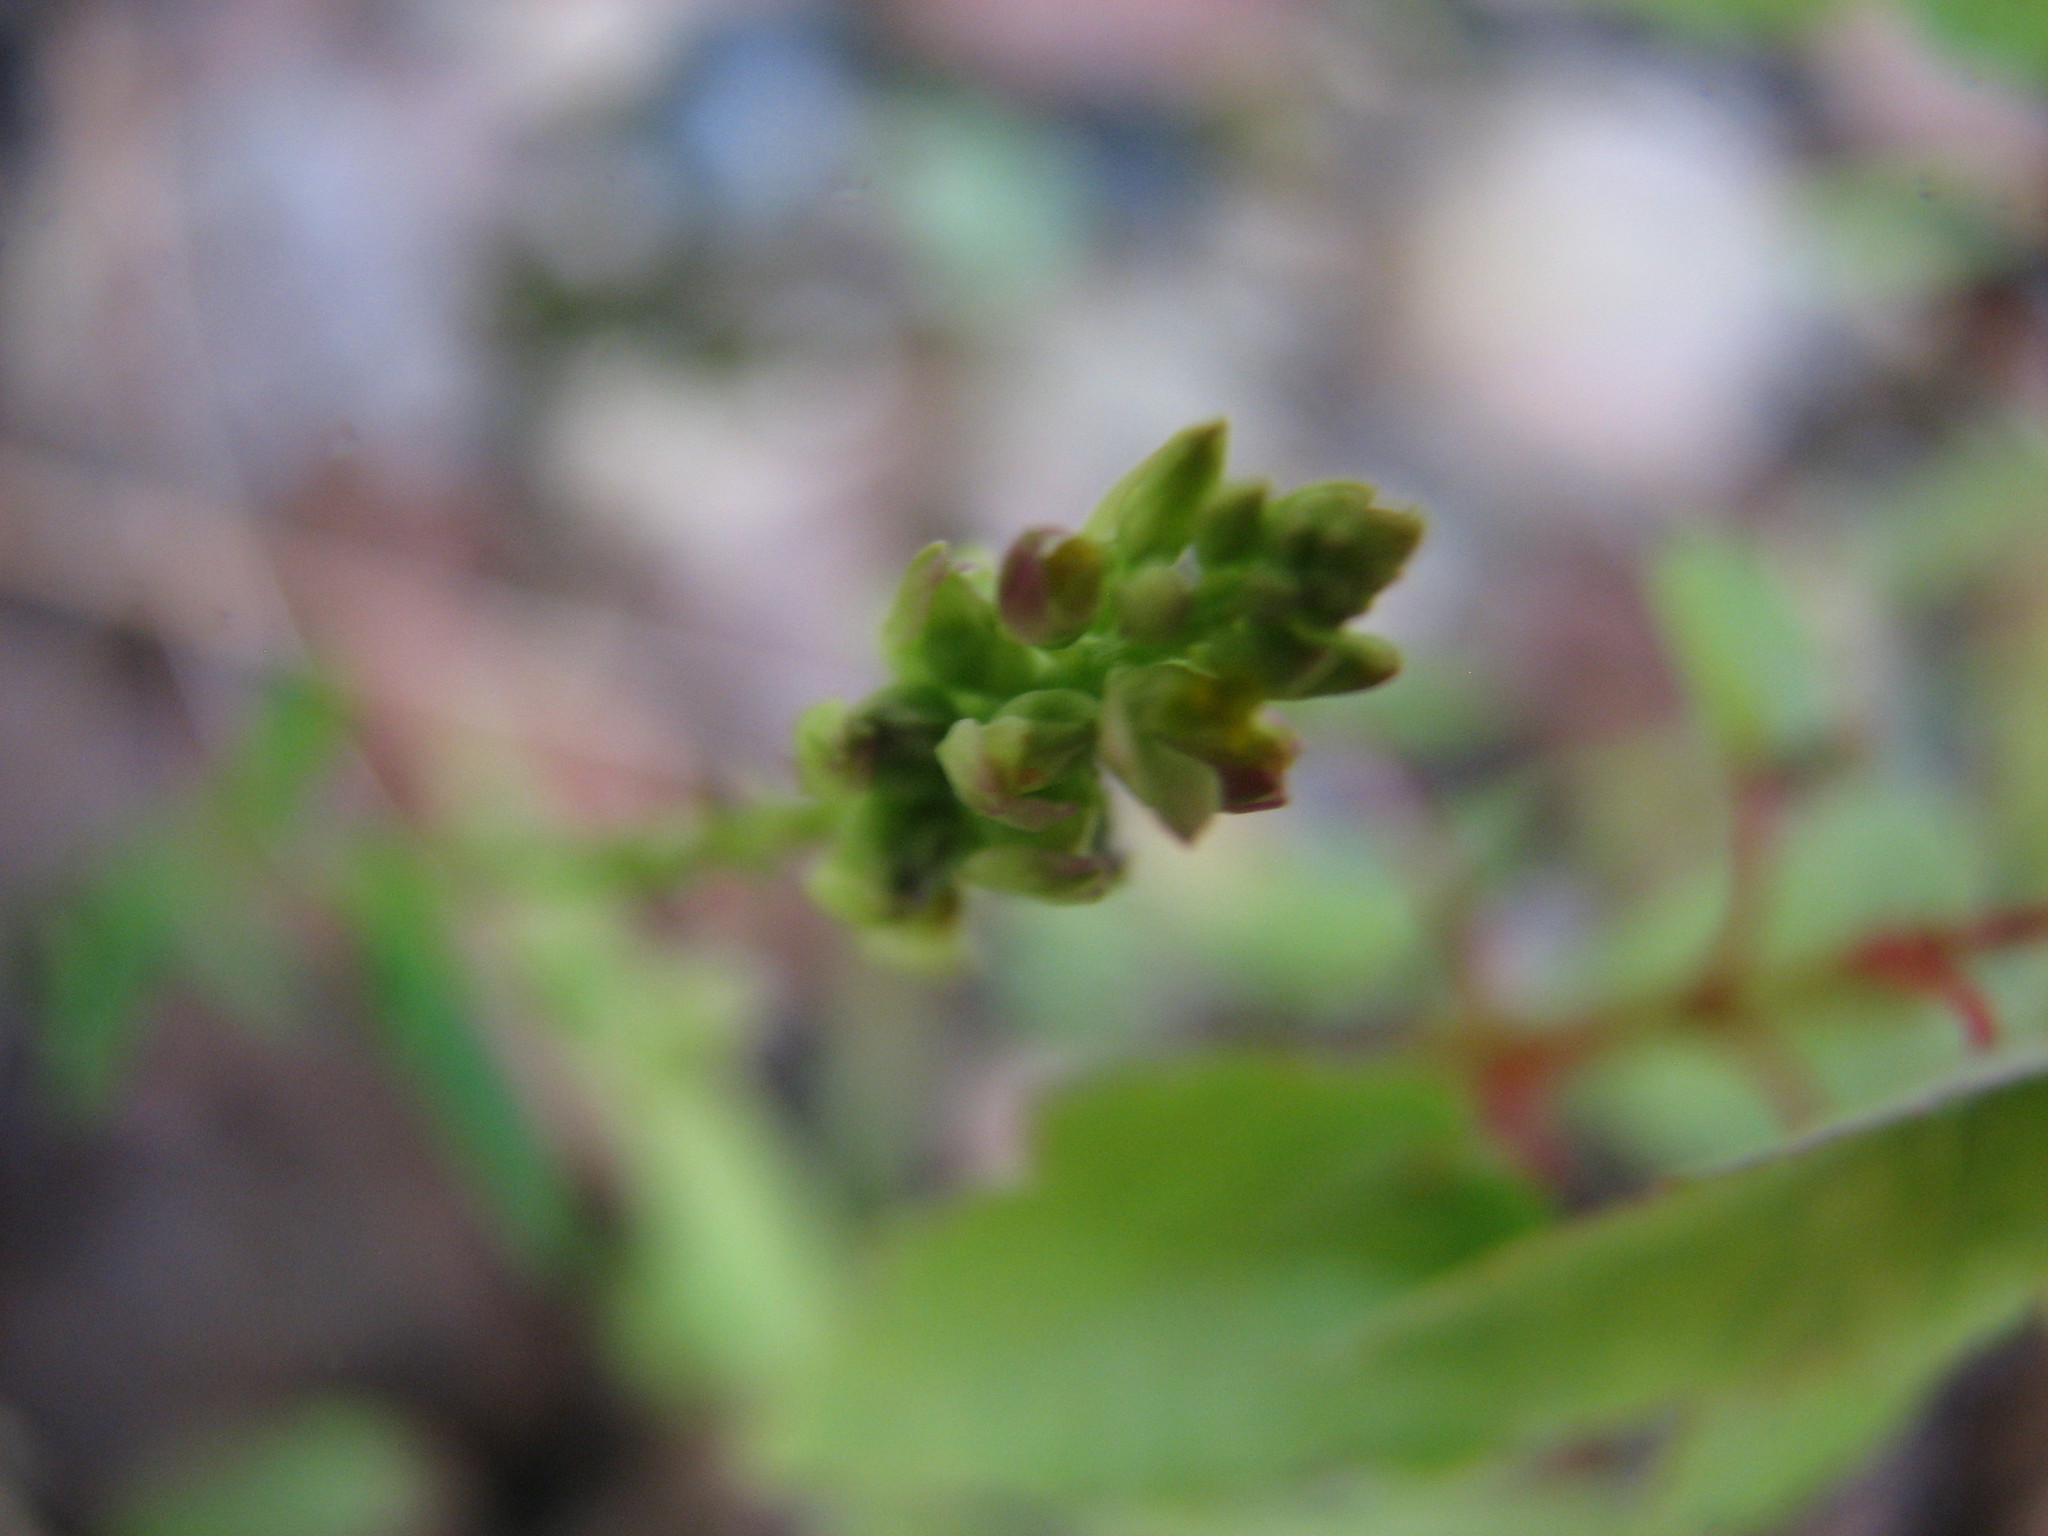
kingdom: Plantae
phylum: Tracheophyta
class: Magnoliopsida
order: Fabales
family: Polygalaceae
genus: Polygala
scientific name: Polygala nuttallii
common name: Nuttall's milkwort
